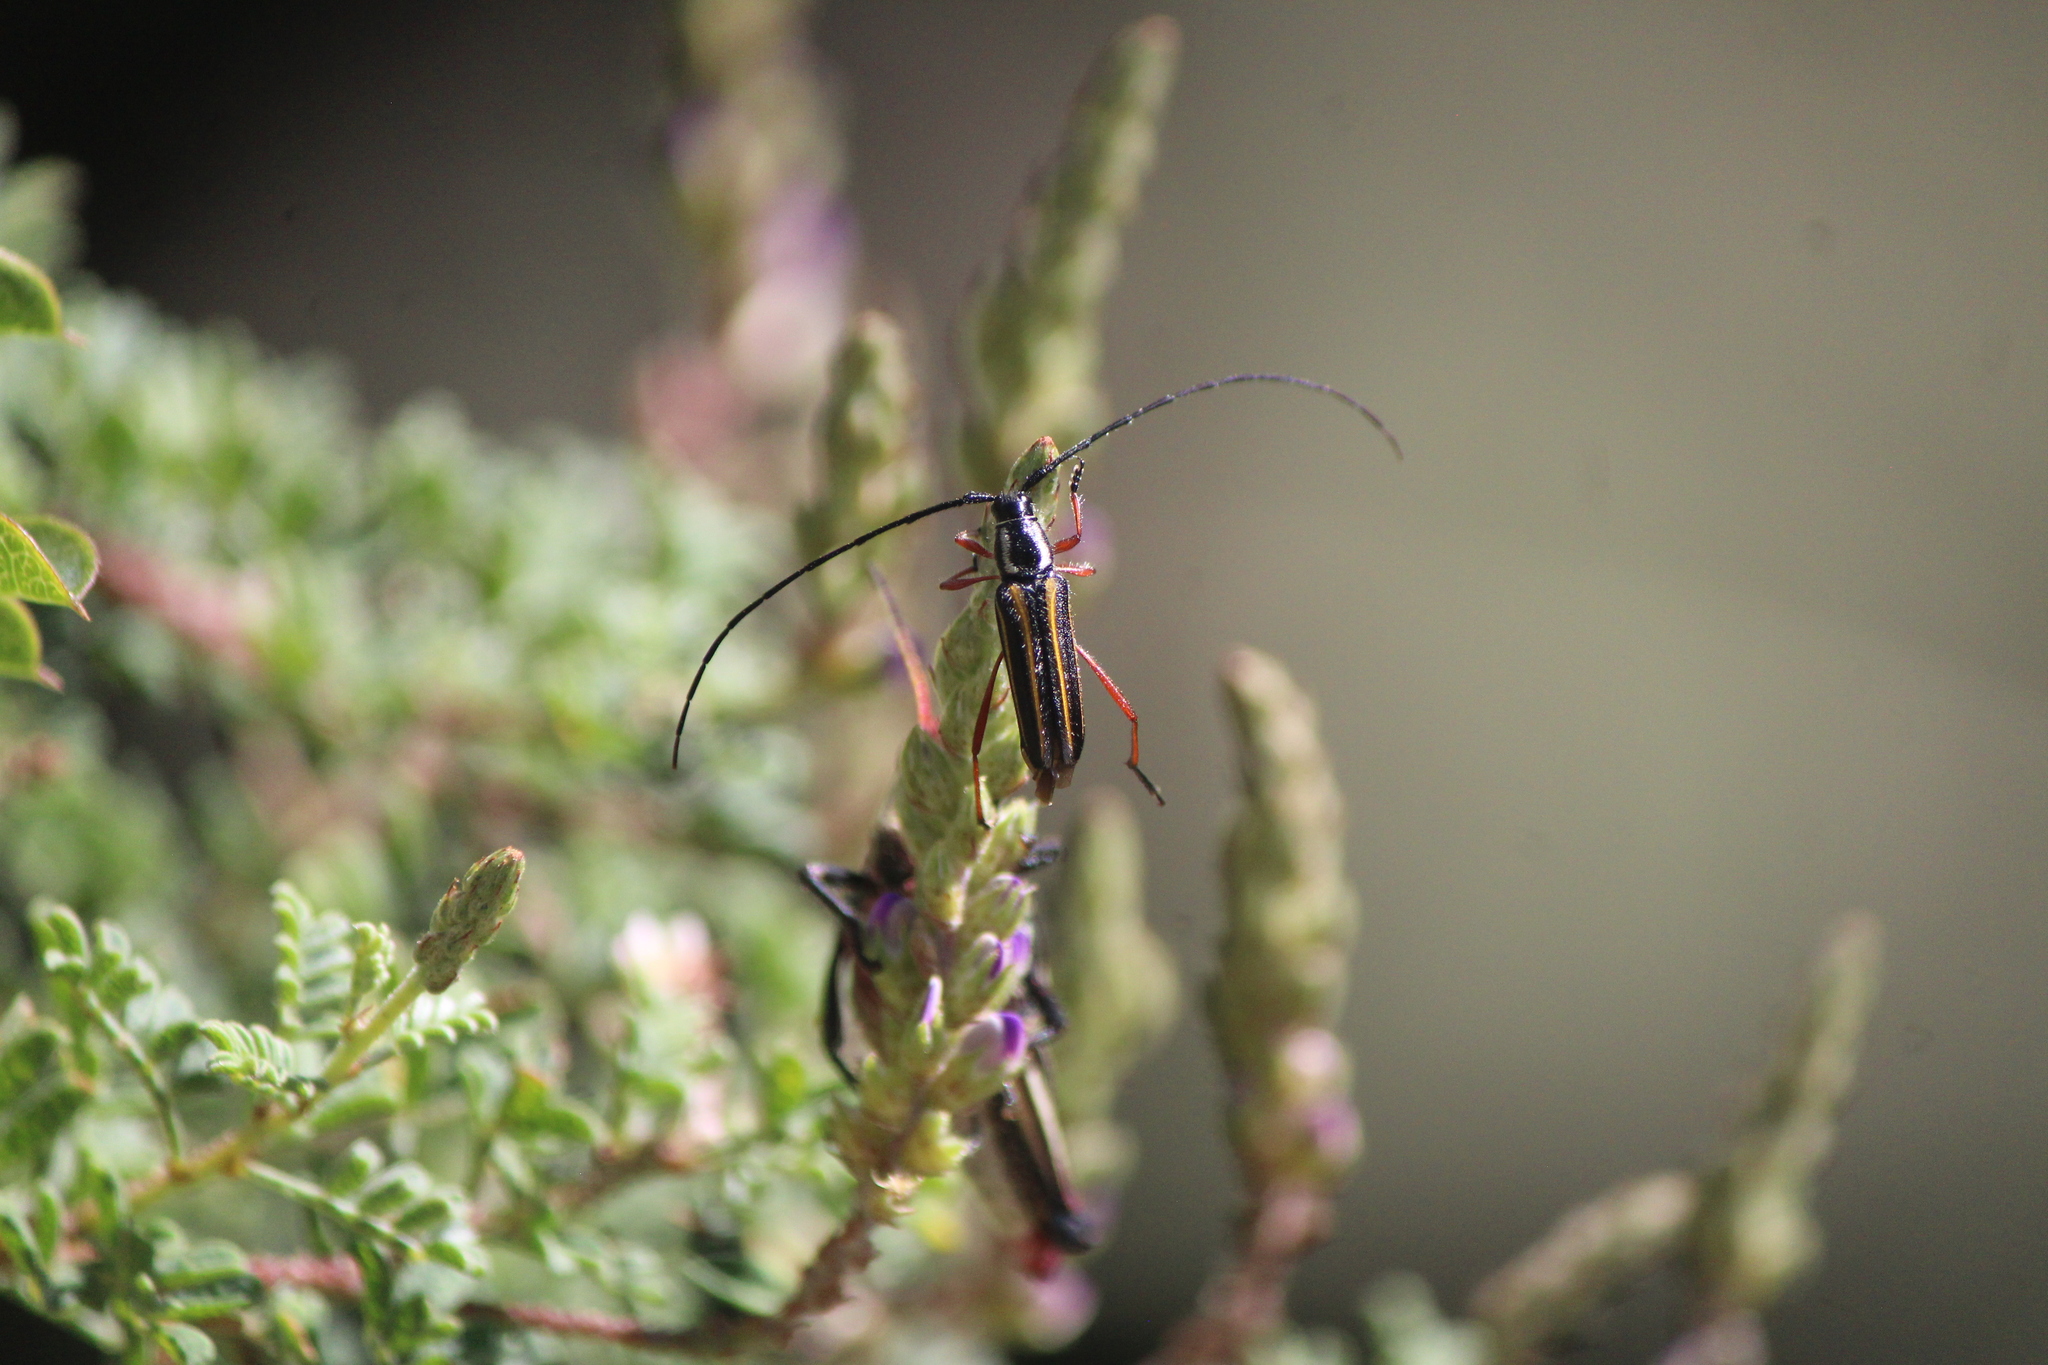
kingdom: Animalia
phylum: Arthropoda
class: Insecta
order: Coleoptera
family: Cerambycidae
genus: Sphaenothecus
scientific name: Sphaenothecus bilineatus
